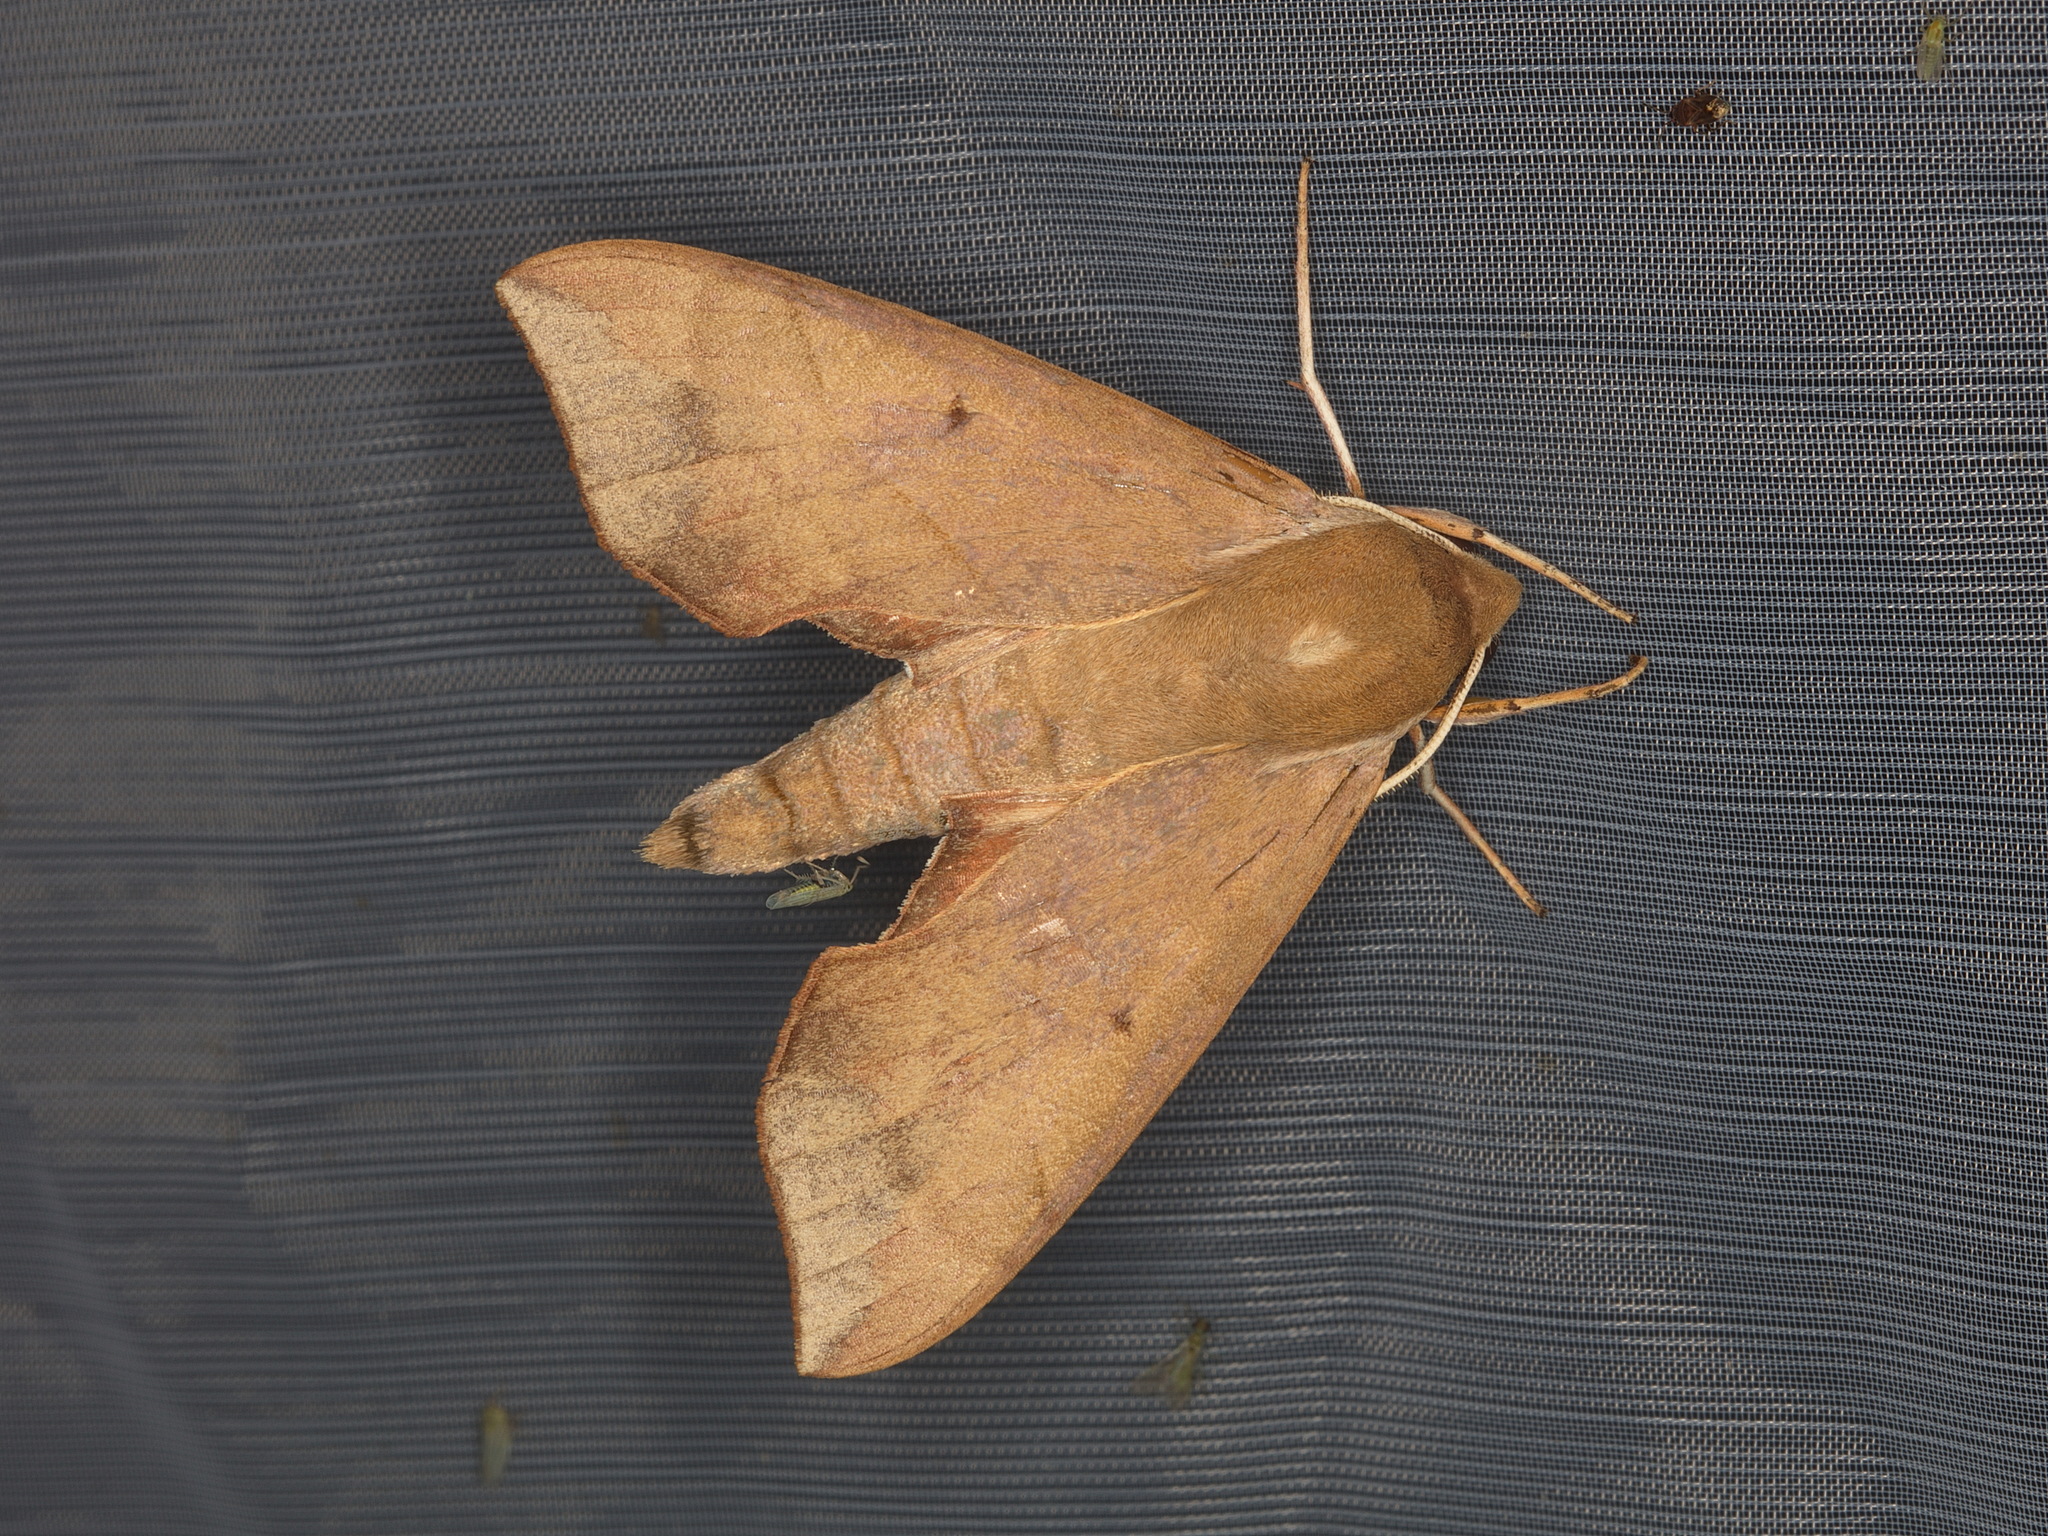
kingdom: Animalia
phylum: Arthropoda
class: Insecta
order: Lepidoptera
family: Sphingidae
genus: Darapsa
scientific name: Darapsa myron
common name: Hog sphinx
